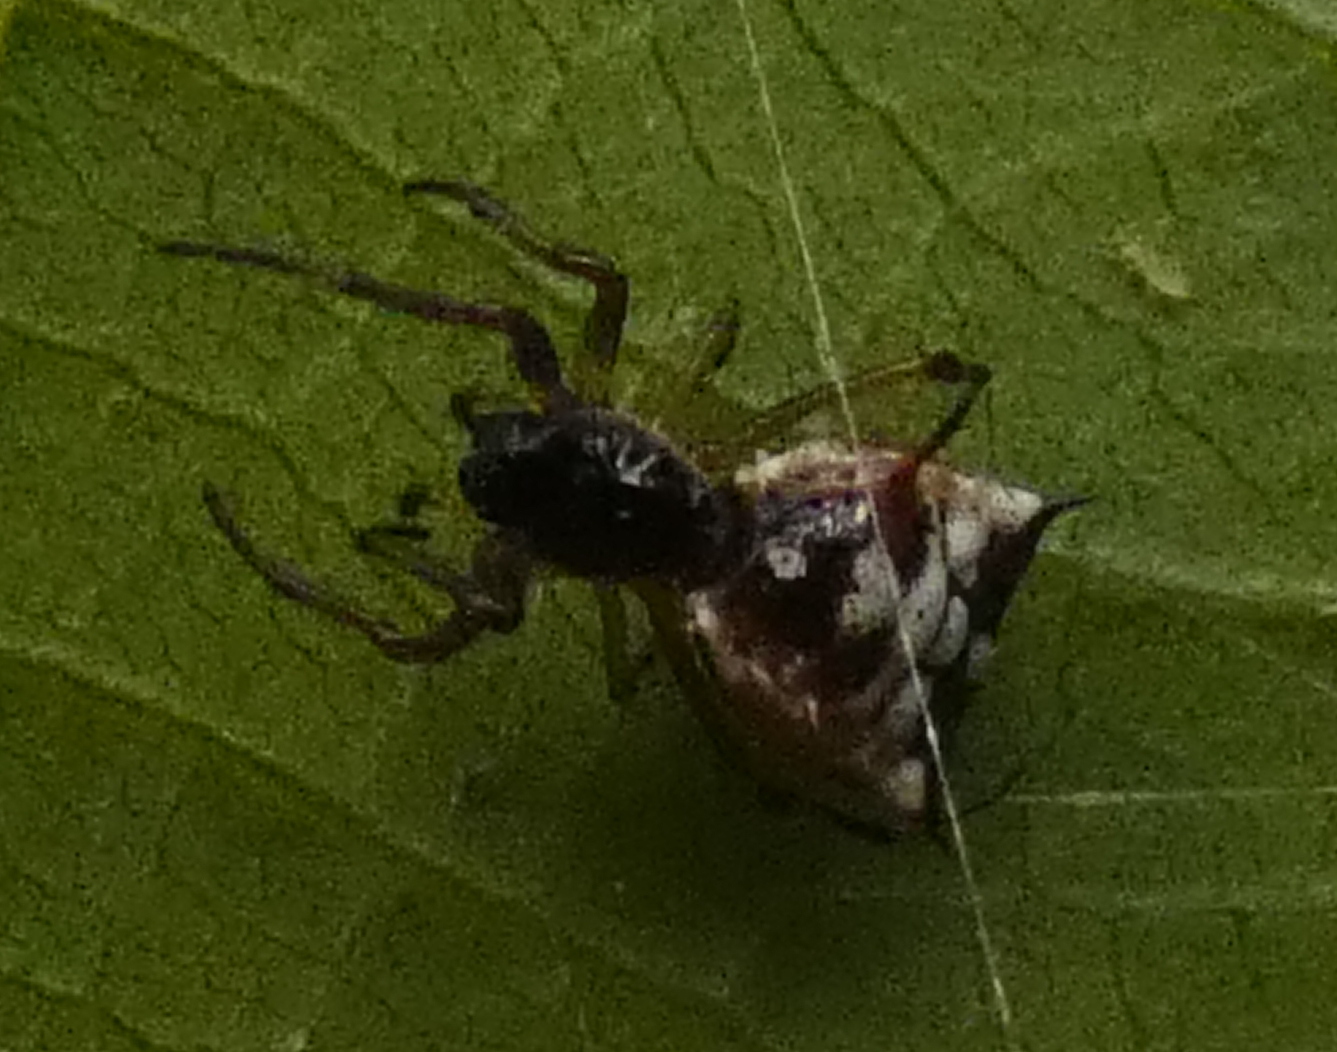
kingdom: Animalia
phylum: Arthropoda
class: Arachnida
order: Araneae
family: Araneidae
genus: Micrathena
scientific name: Micrathena picta
